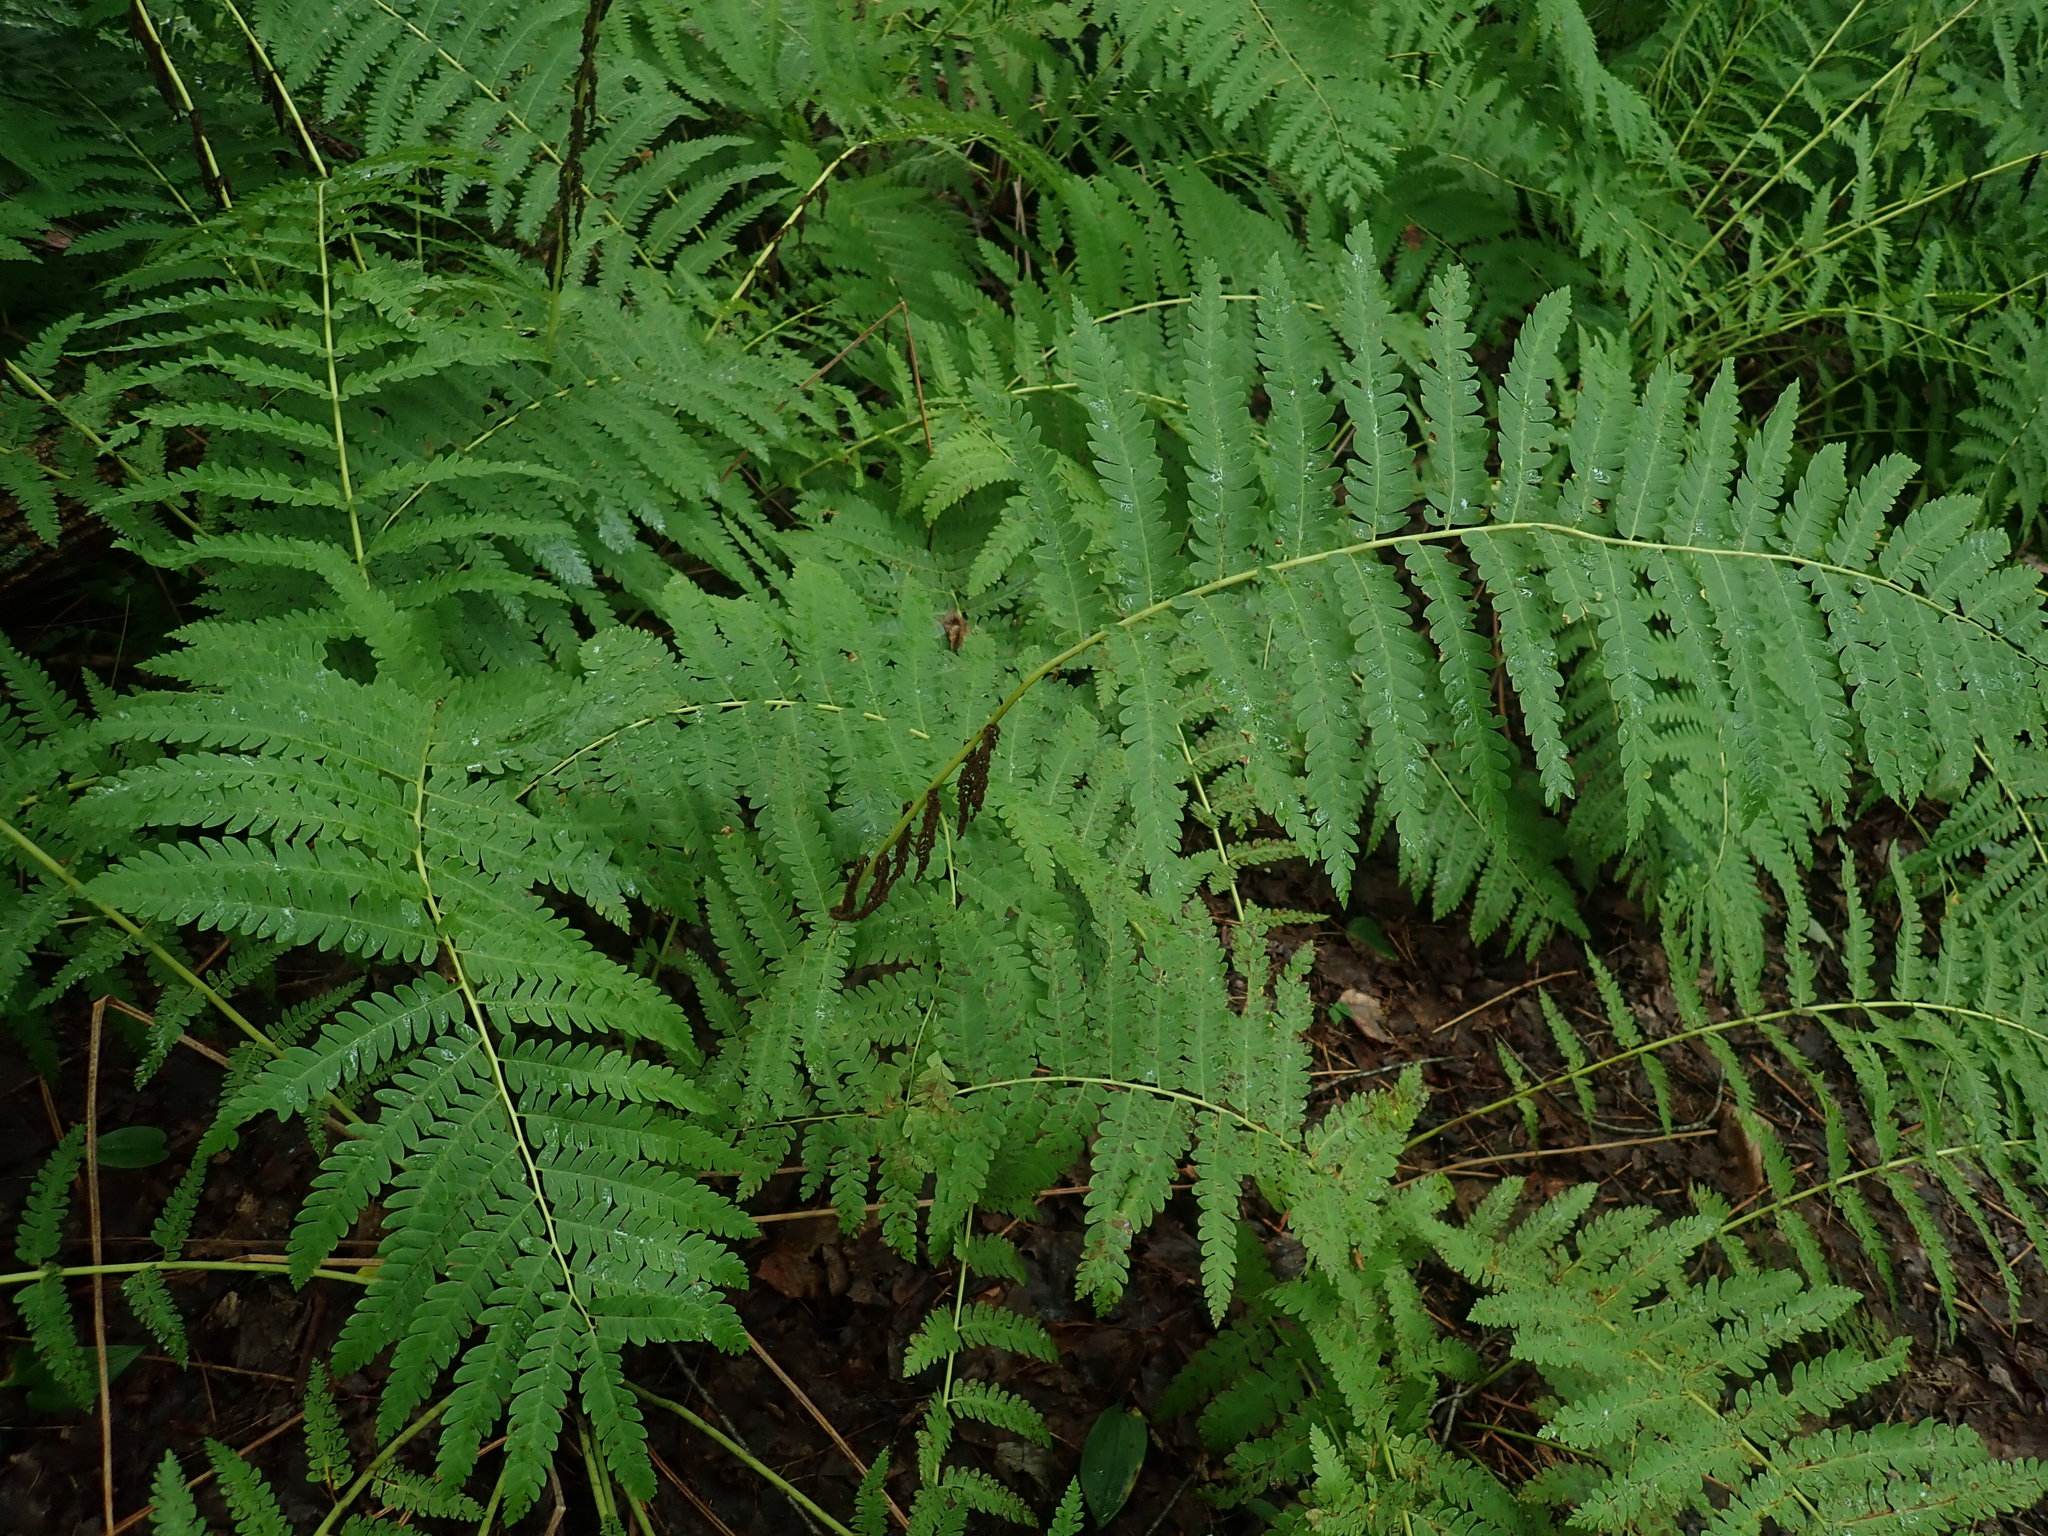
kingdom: Plantae
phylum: Tracheophyta
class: Polypodiopsida
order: Osmundales
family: Osmundaceae
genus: Claytosmunda
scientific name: Claytosmunda claytoniana
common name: Clayton's fern
